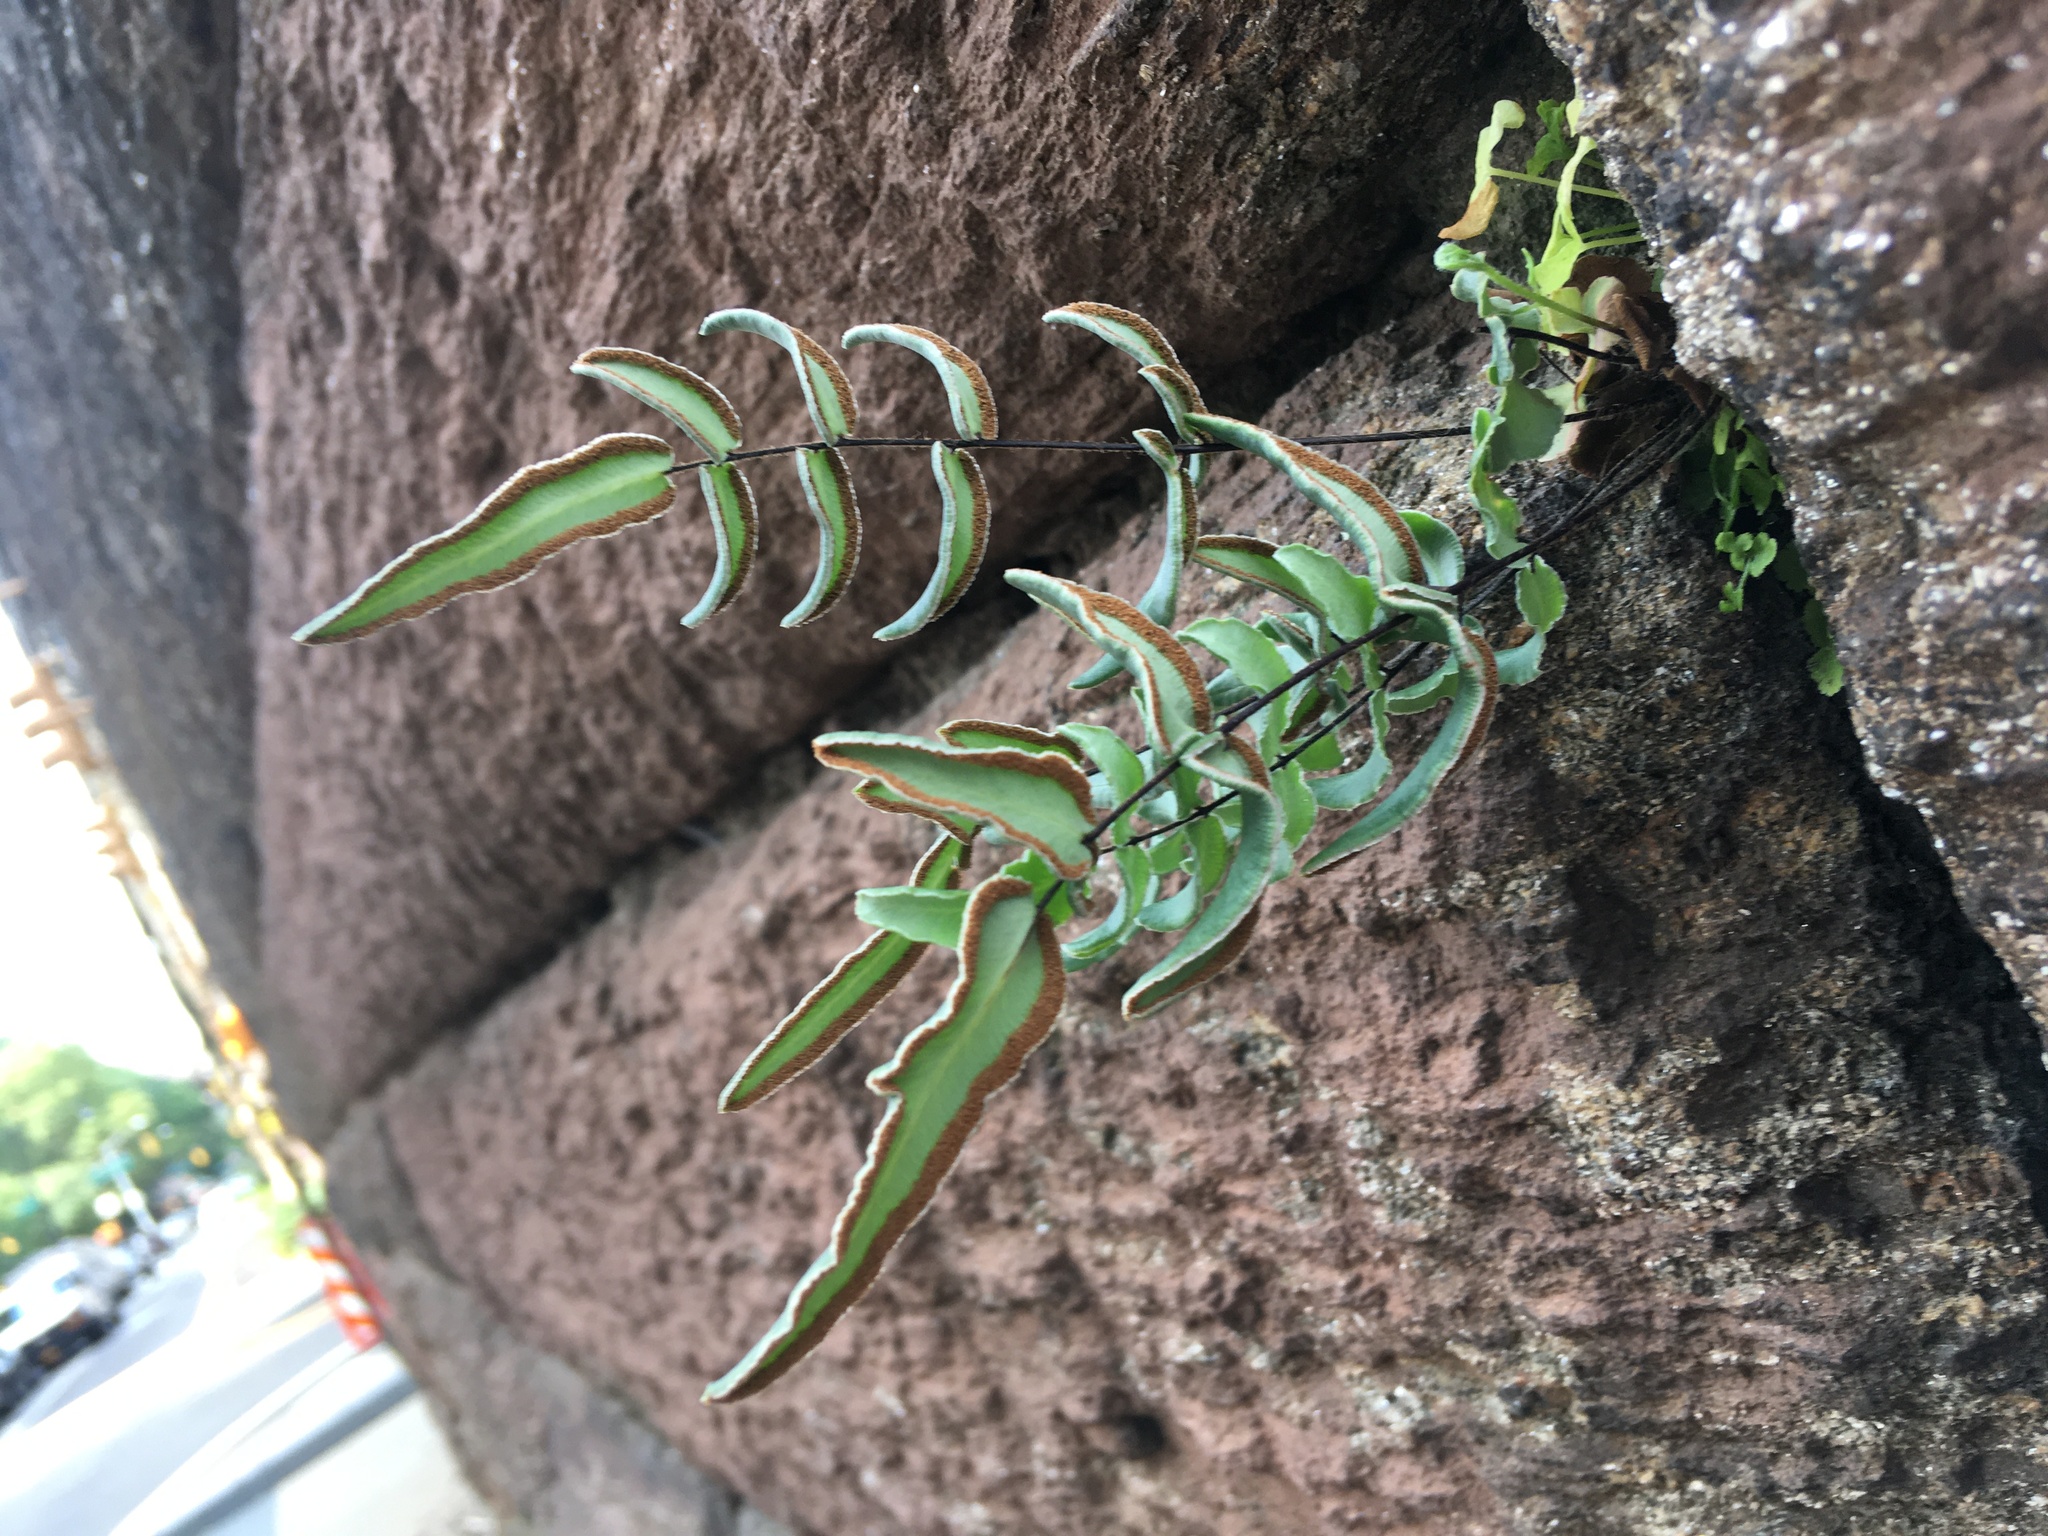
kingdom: Plantae
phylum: Tracheophyta
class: Polypodiopsida
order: Polypodiales
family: Pteridaceae
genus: Pellaea
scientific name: Pellaea atropurpurea
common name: Hairy cliffbrake
